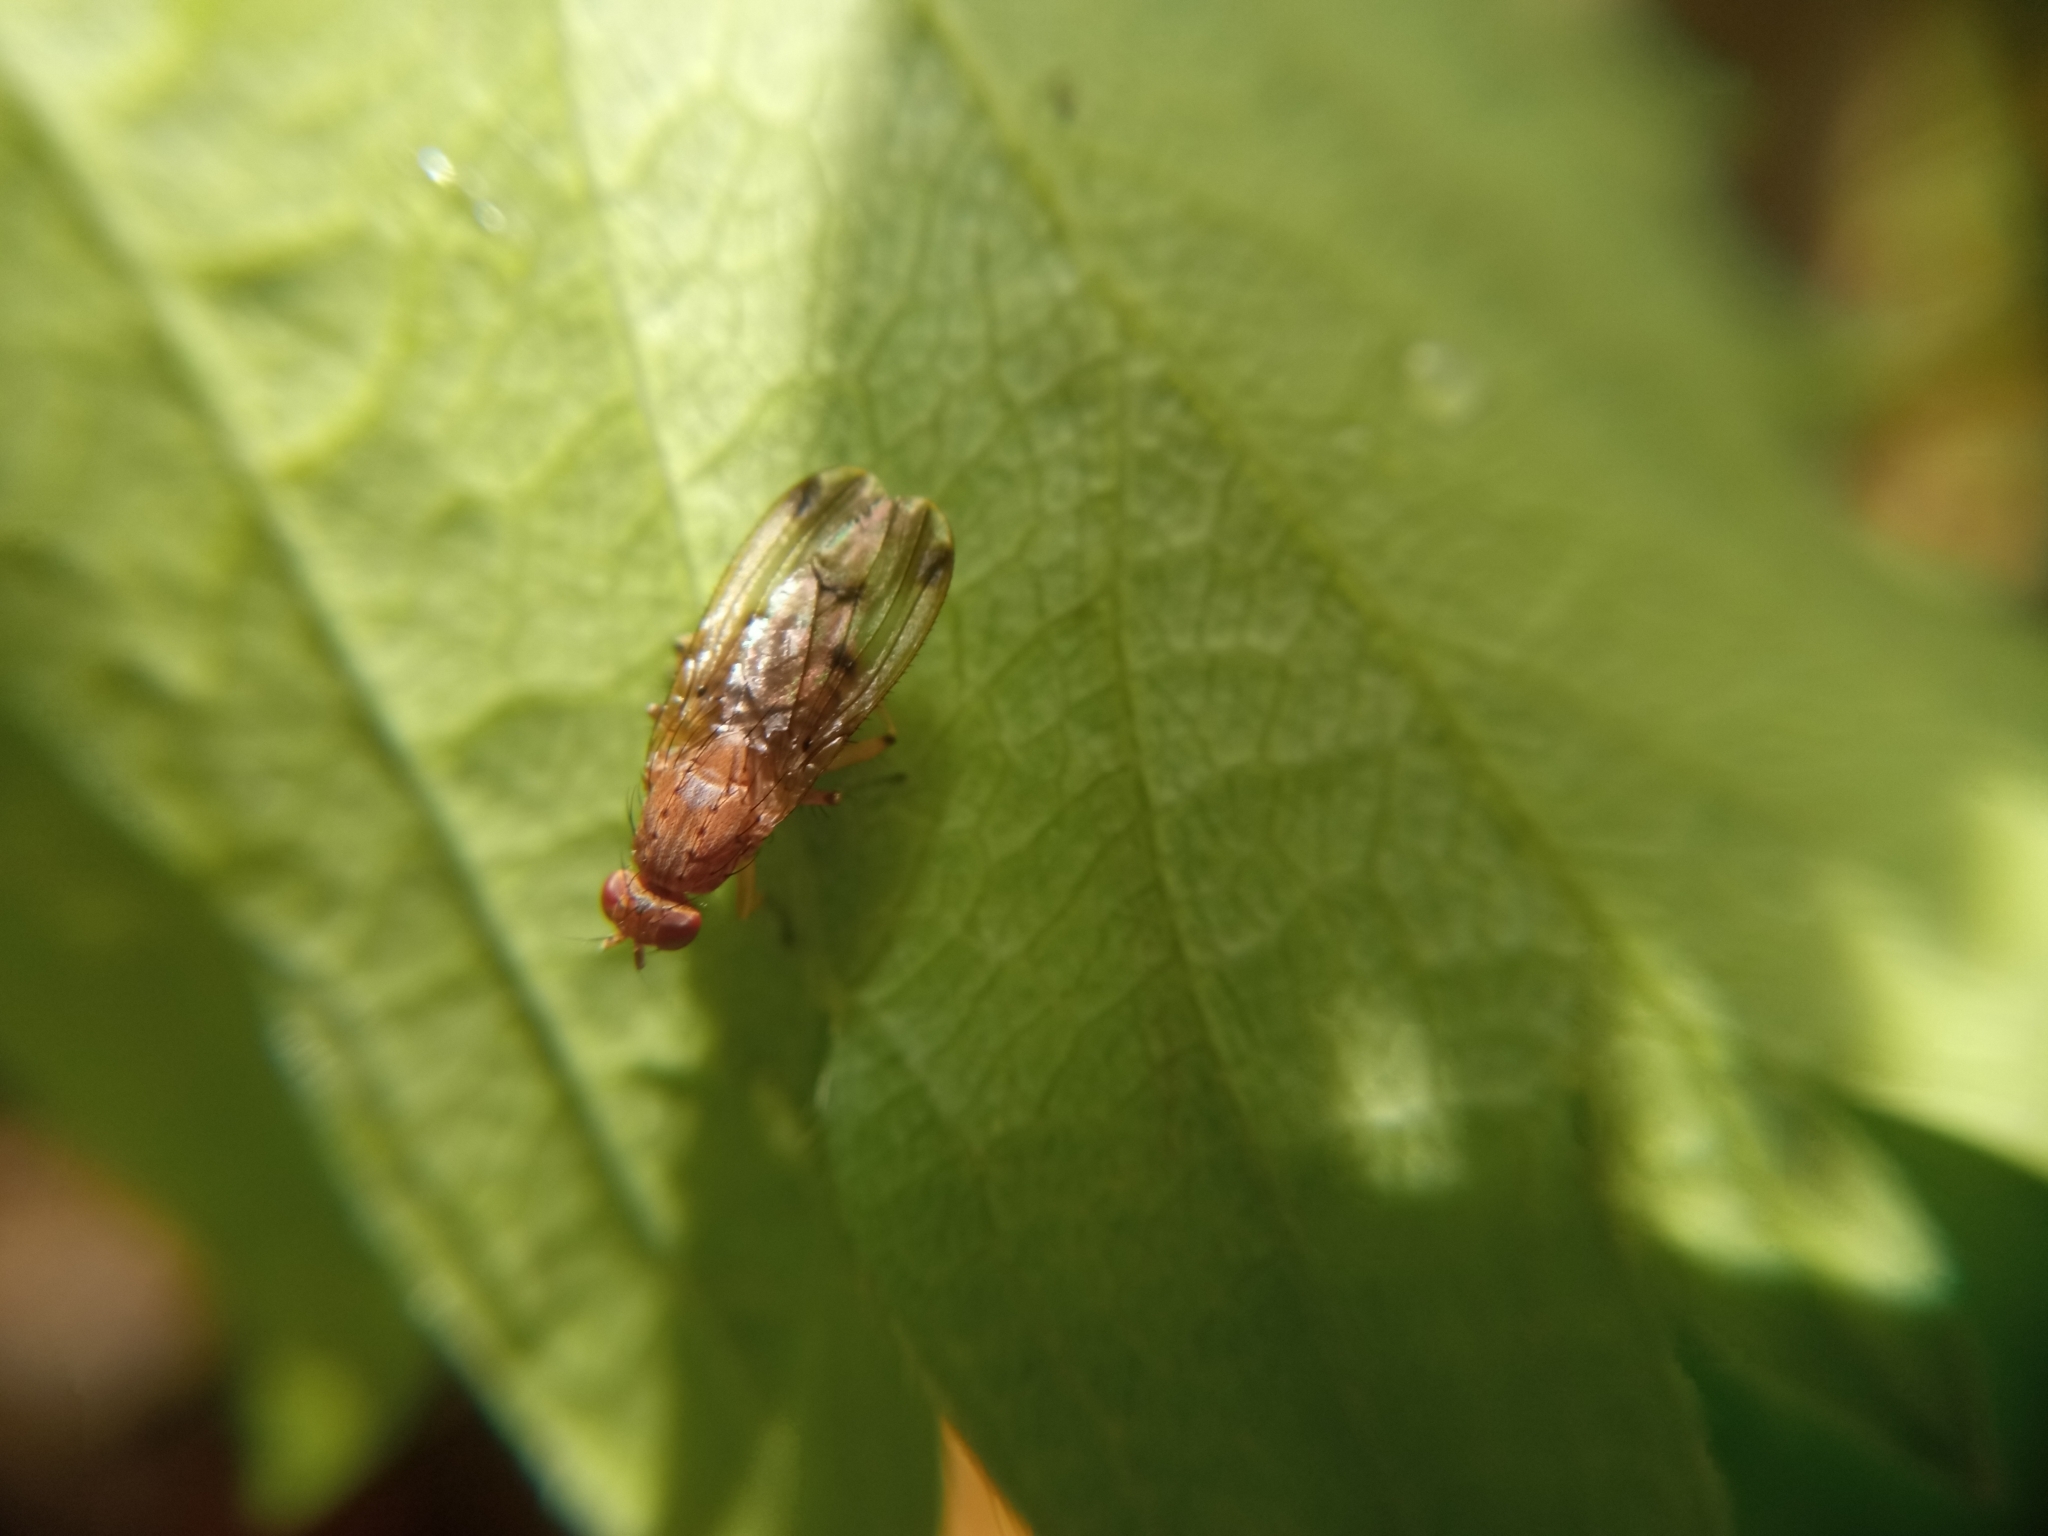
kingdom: Animalia
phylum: Arthropoda
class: Insecta
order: Diptera
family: Heleomyzidae
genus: Suillia
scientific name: Suillia variegata
